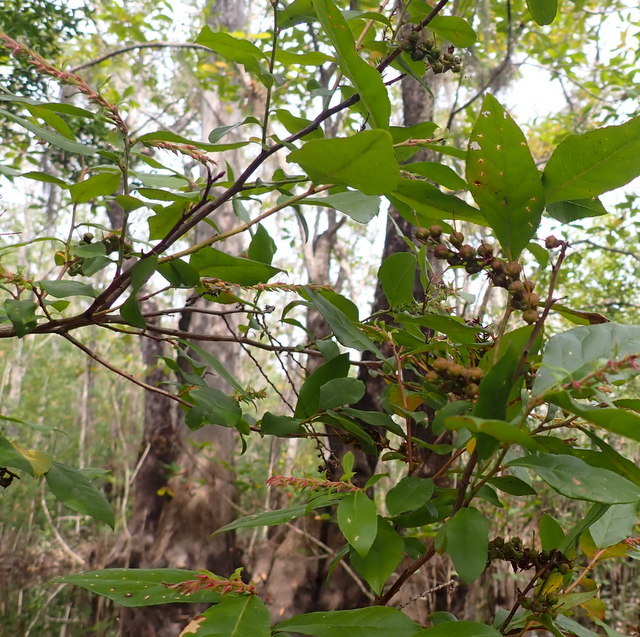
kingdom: Plantae
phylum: Tracheophyta
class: Magnoliopsida
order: Ericales
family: Ericaceae
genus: Eubotrys
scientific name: Eubotrys racemosa
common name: Fetterbush
